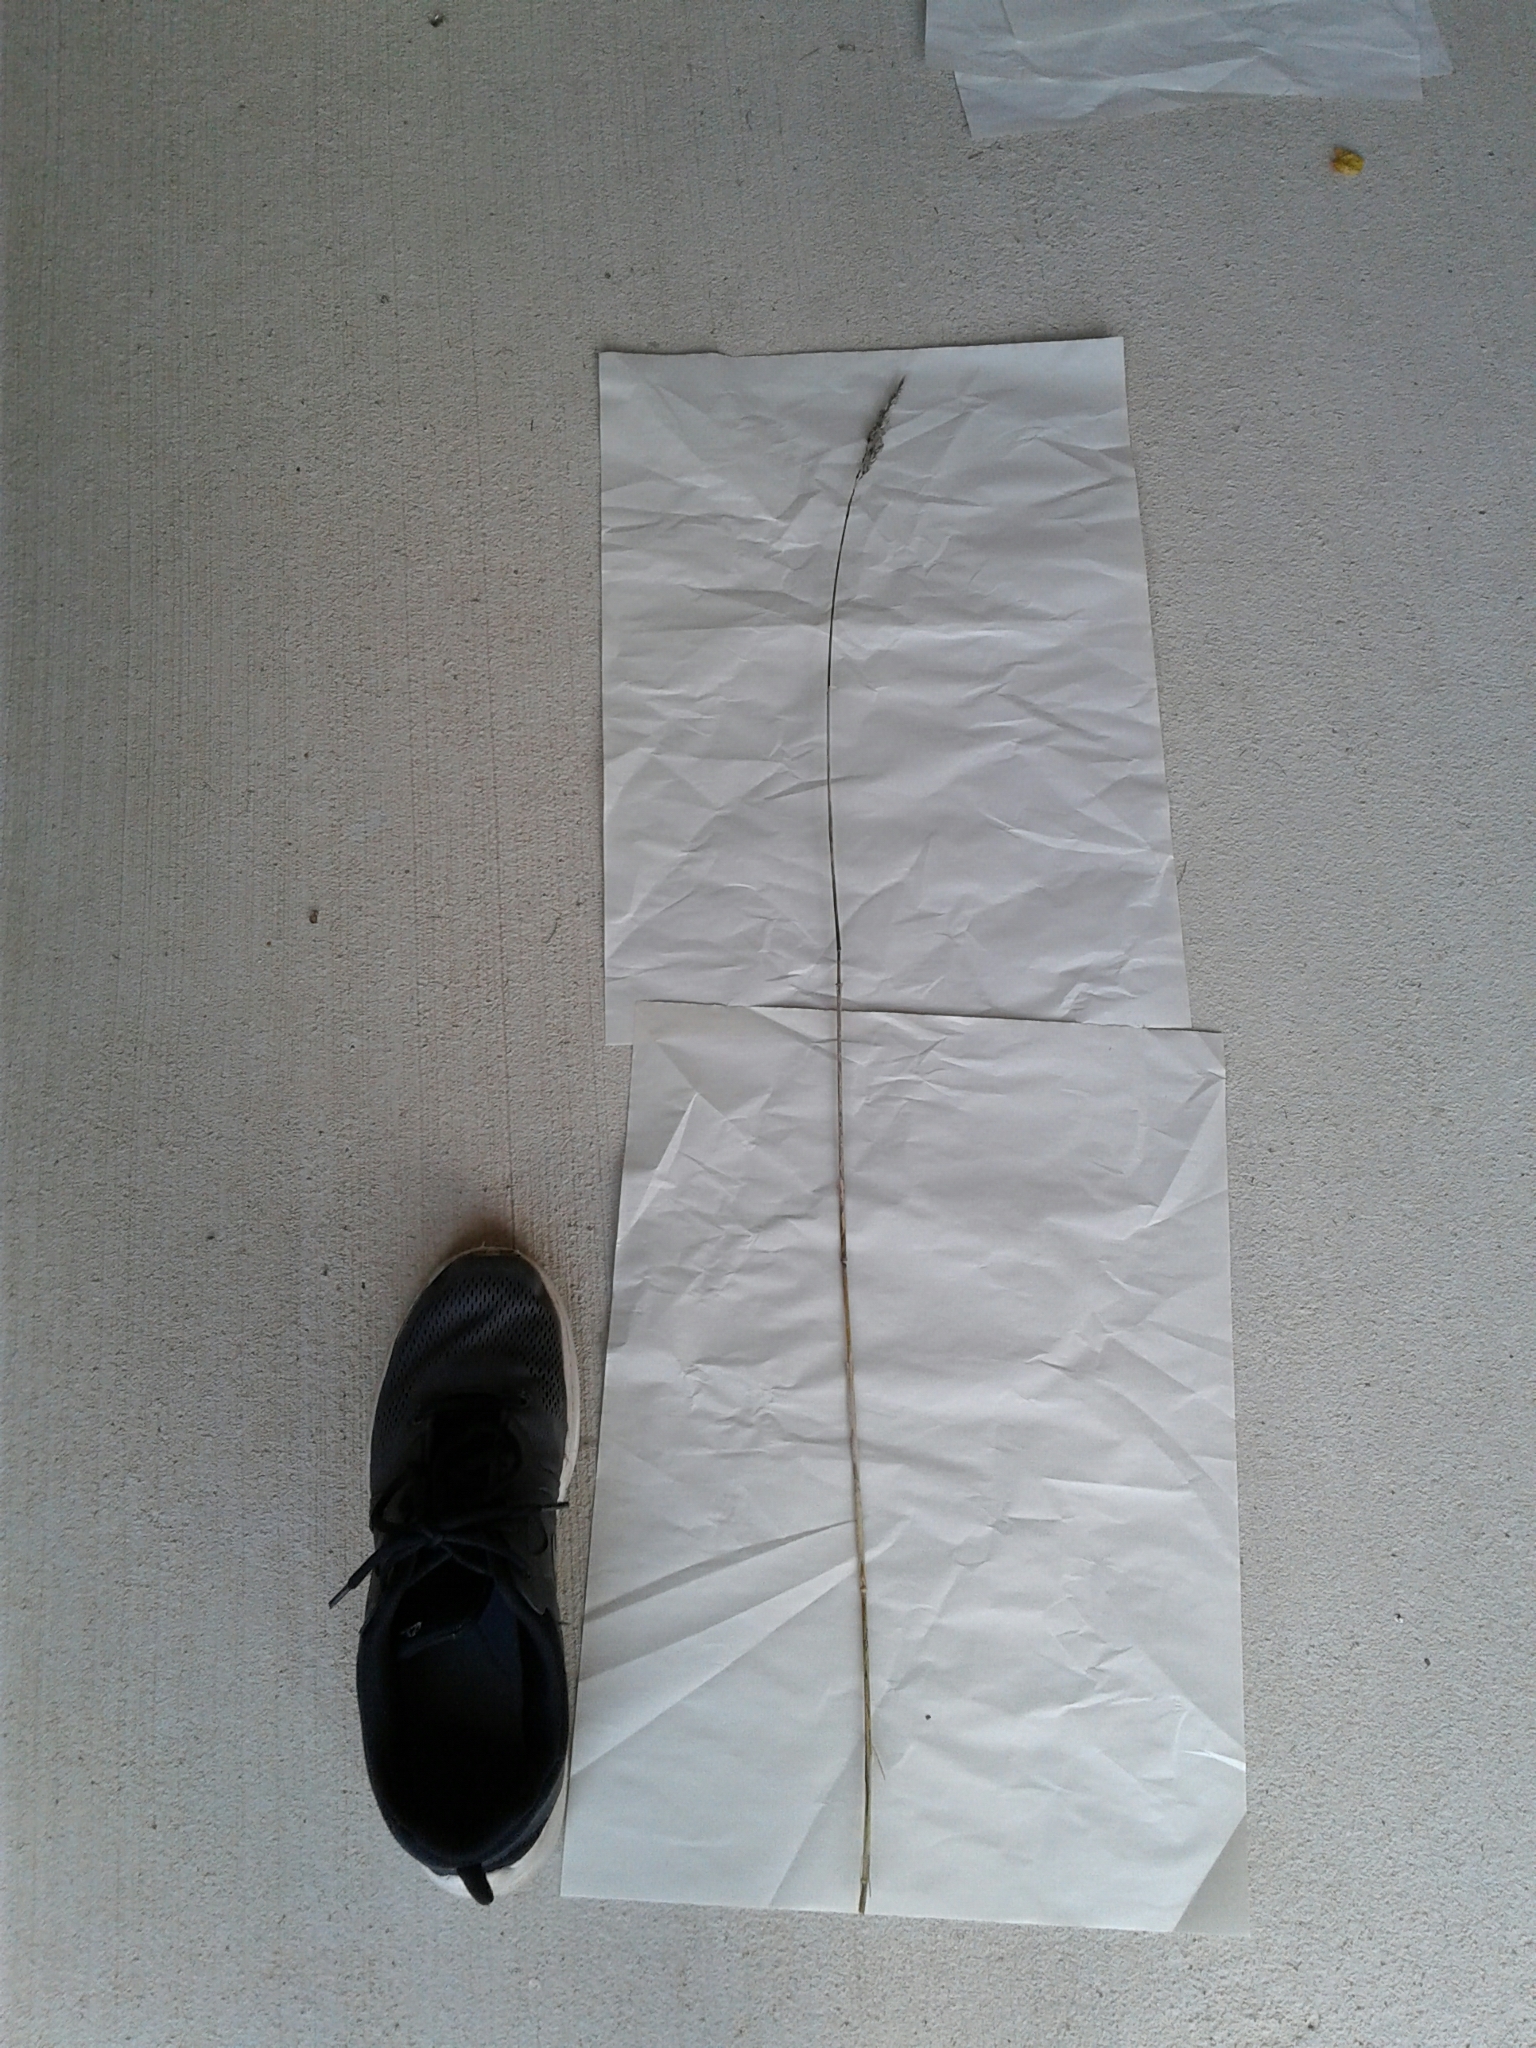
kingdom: Plantae
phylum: Tracheophyta
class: Liliopsida
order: Poales
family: Poaceae
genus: Dactylis
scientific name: Dactylis glomerata
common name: Orchardgrass
